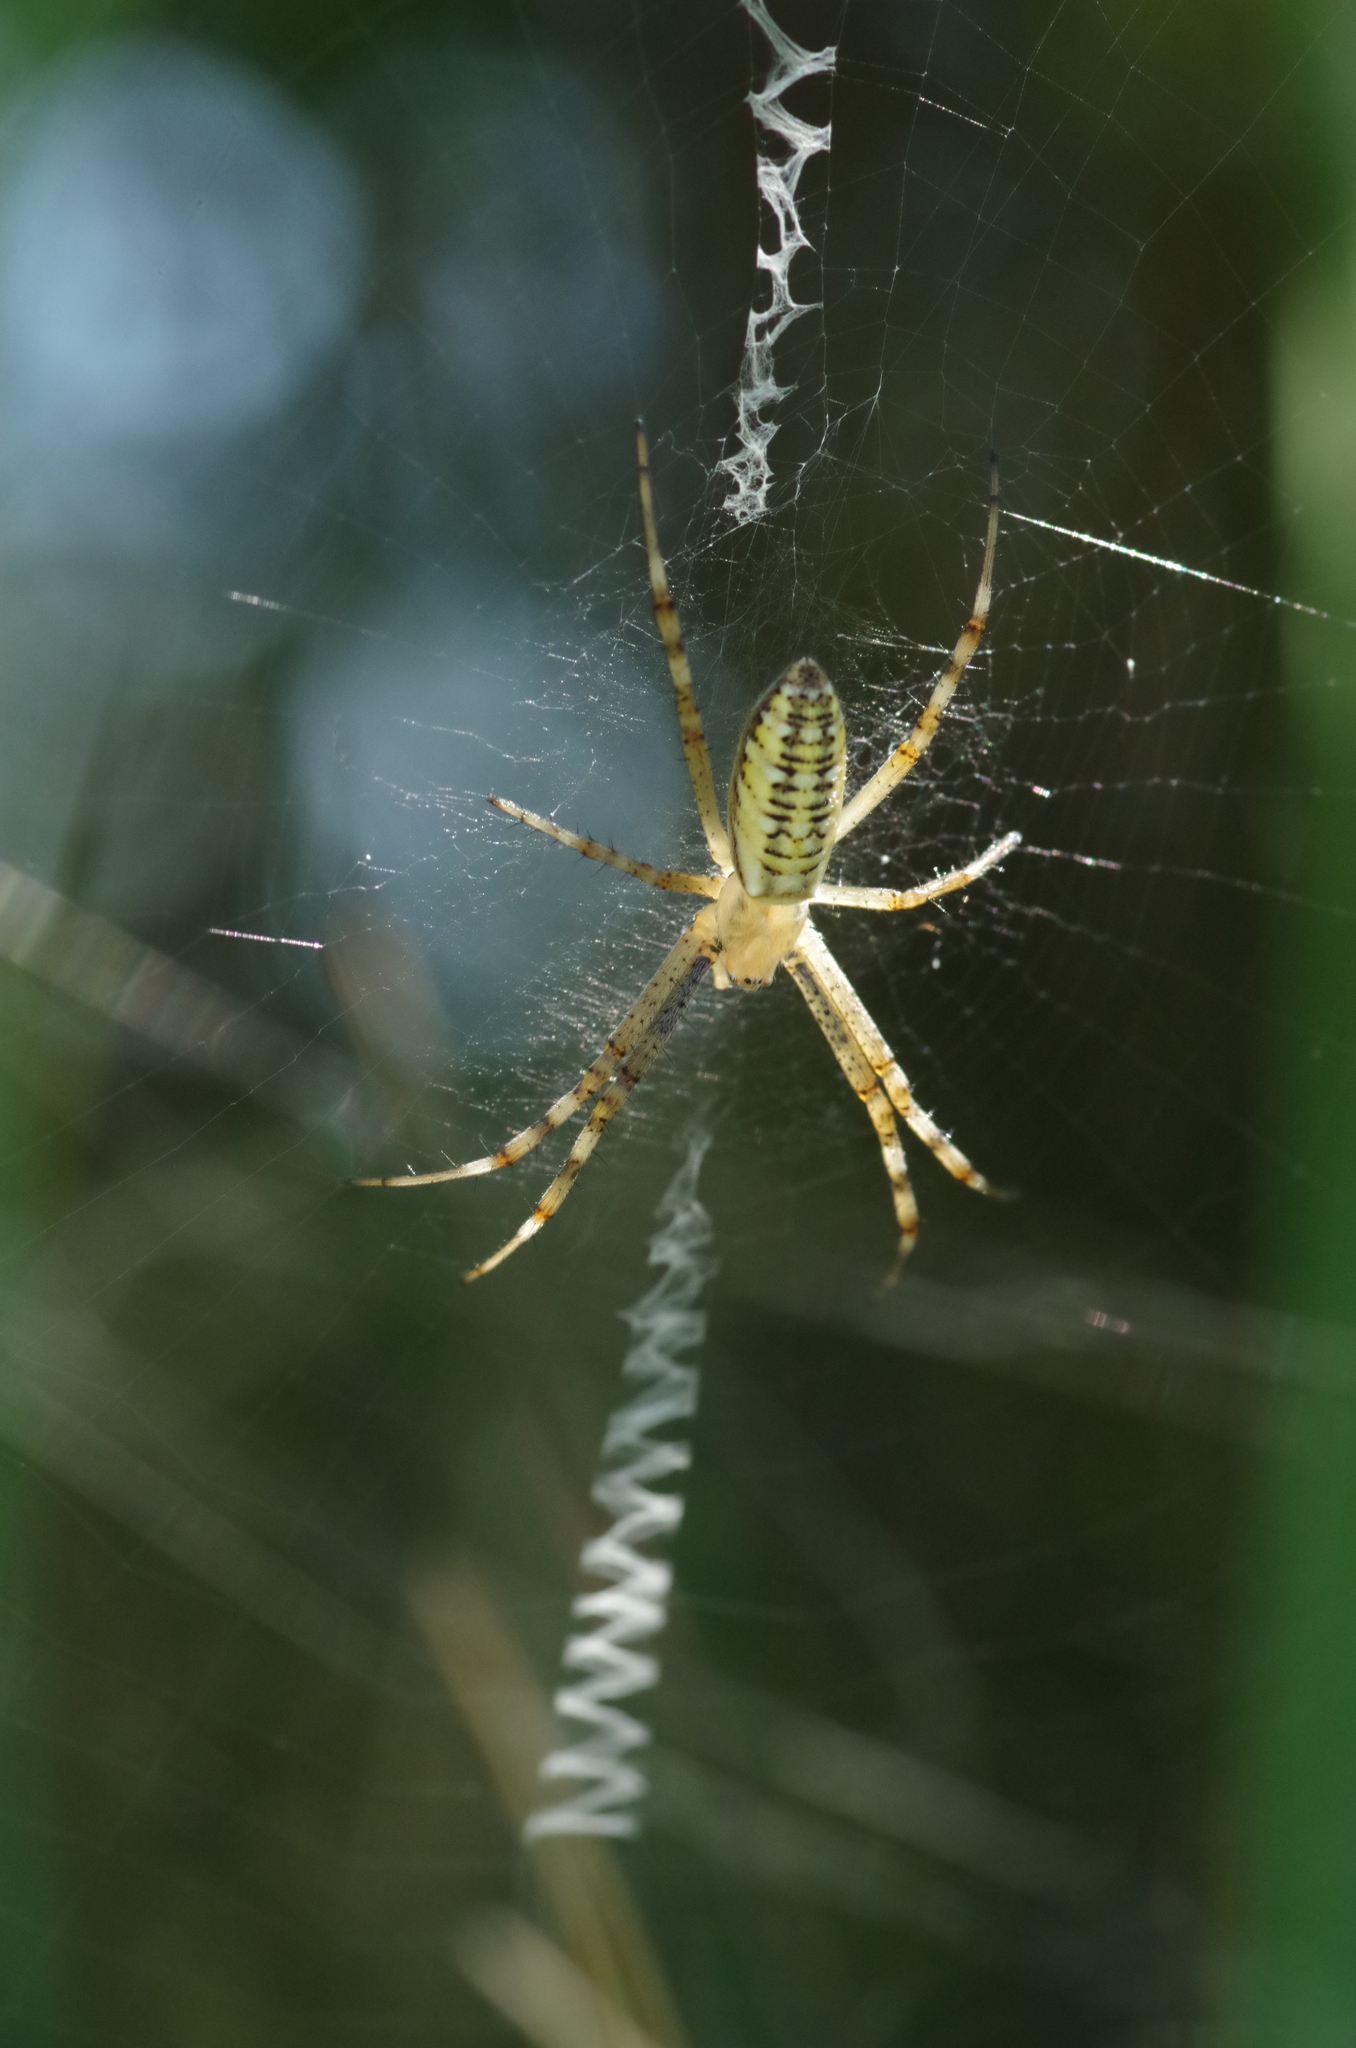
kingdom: Animalia
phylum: Arthropoda
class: Arachnida
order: Araneae
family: Araneidae
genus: Argiope
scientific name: Argiope bruennichi
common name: Wasp spider
